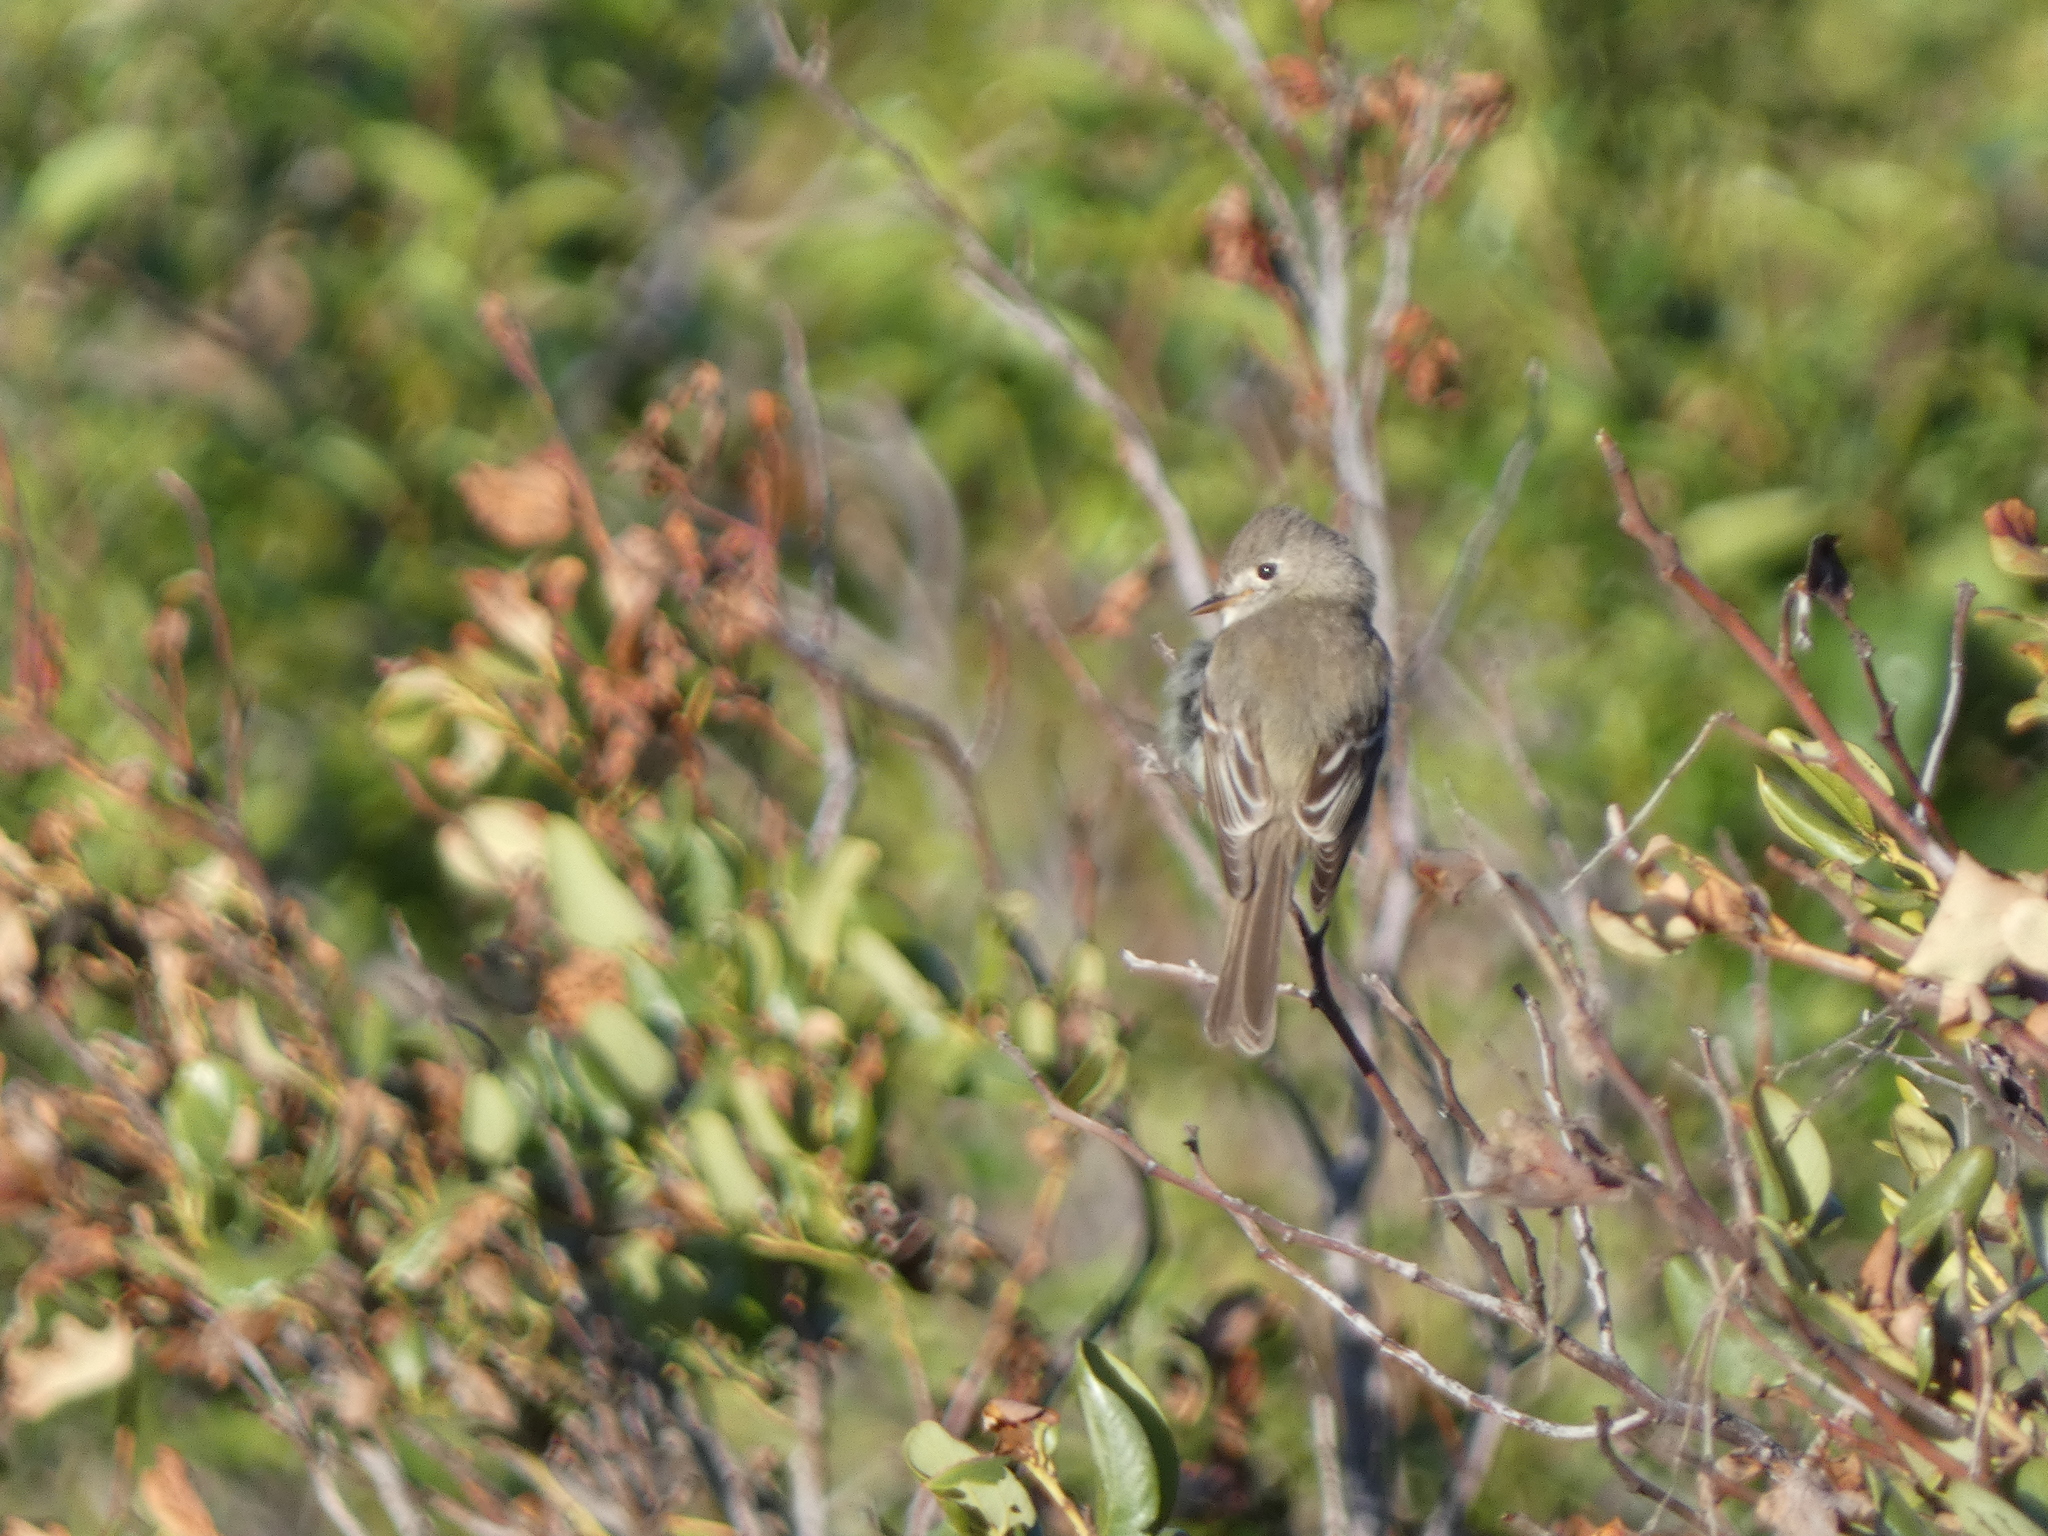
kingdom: Animalia
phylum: Chordata
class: Aves
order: Passeriformes
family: Tyrannidae
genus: Empidonax
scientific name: Empidonax oberholseri
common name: Dusky flycatcher
